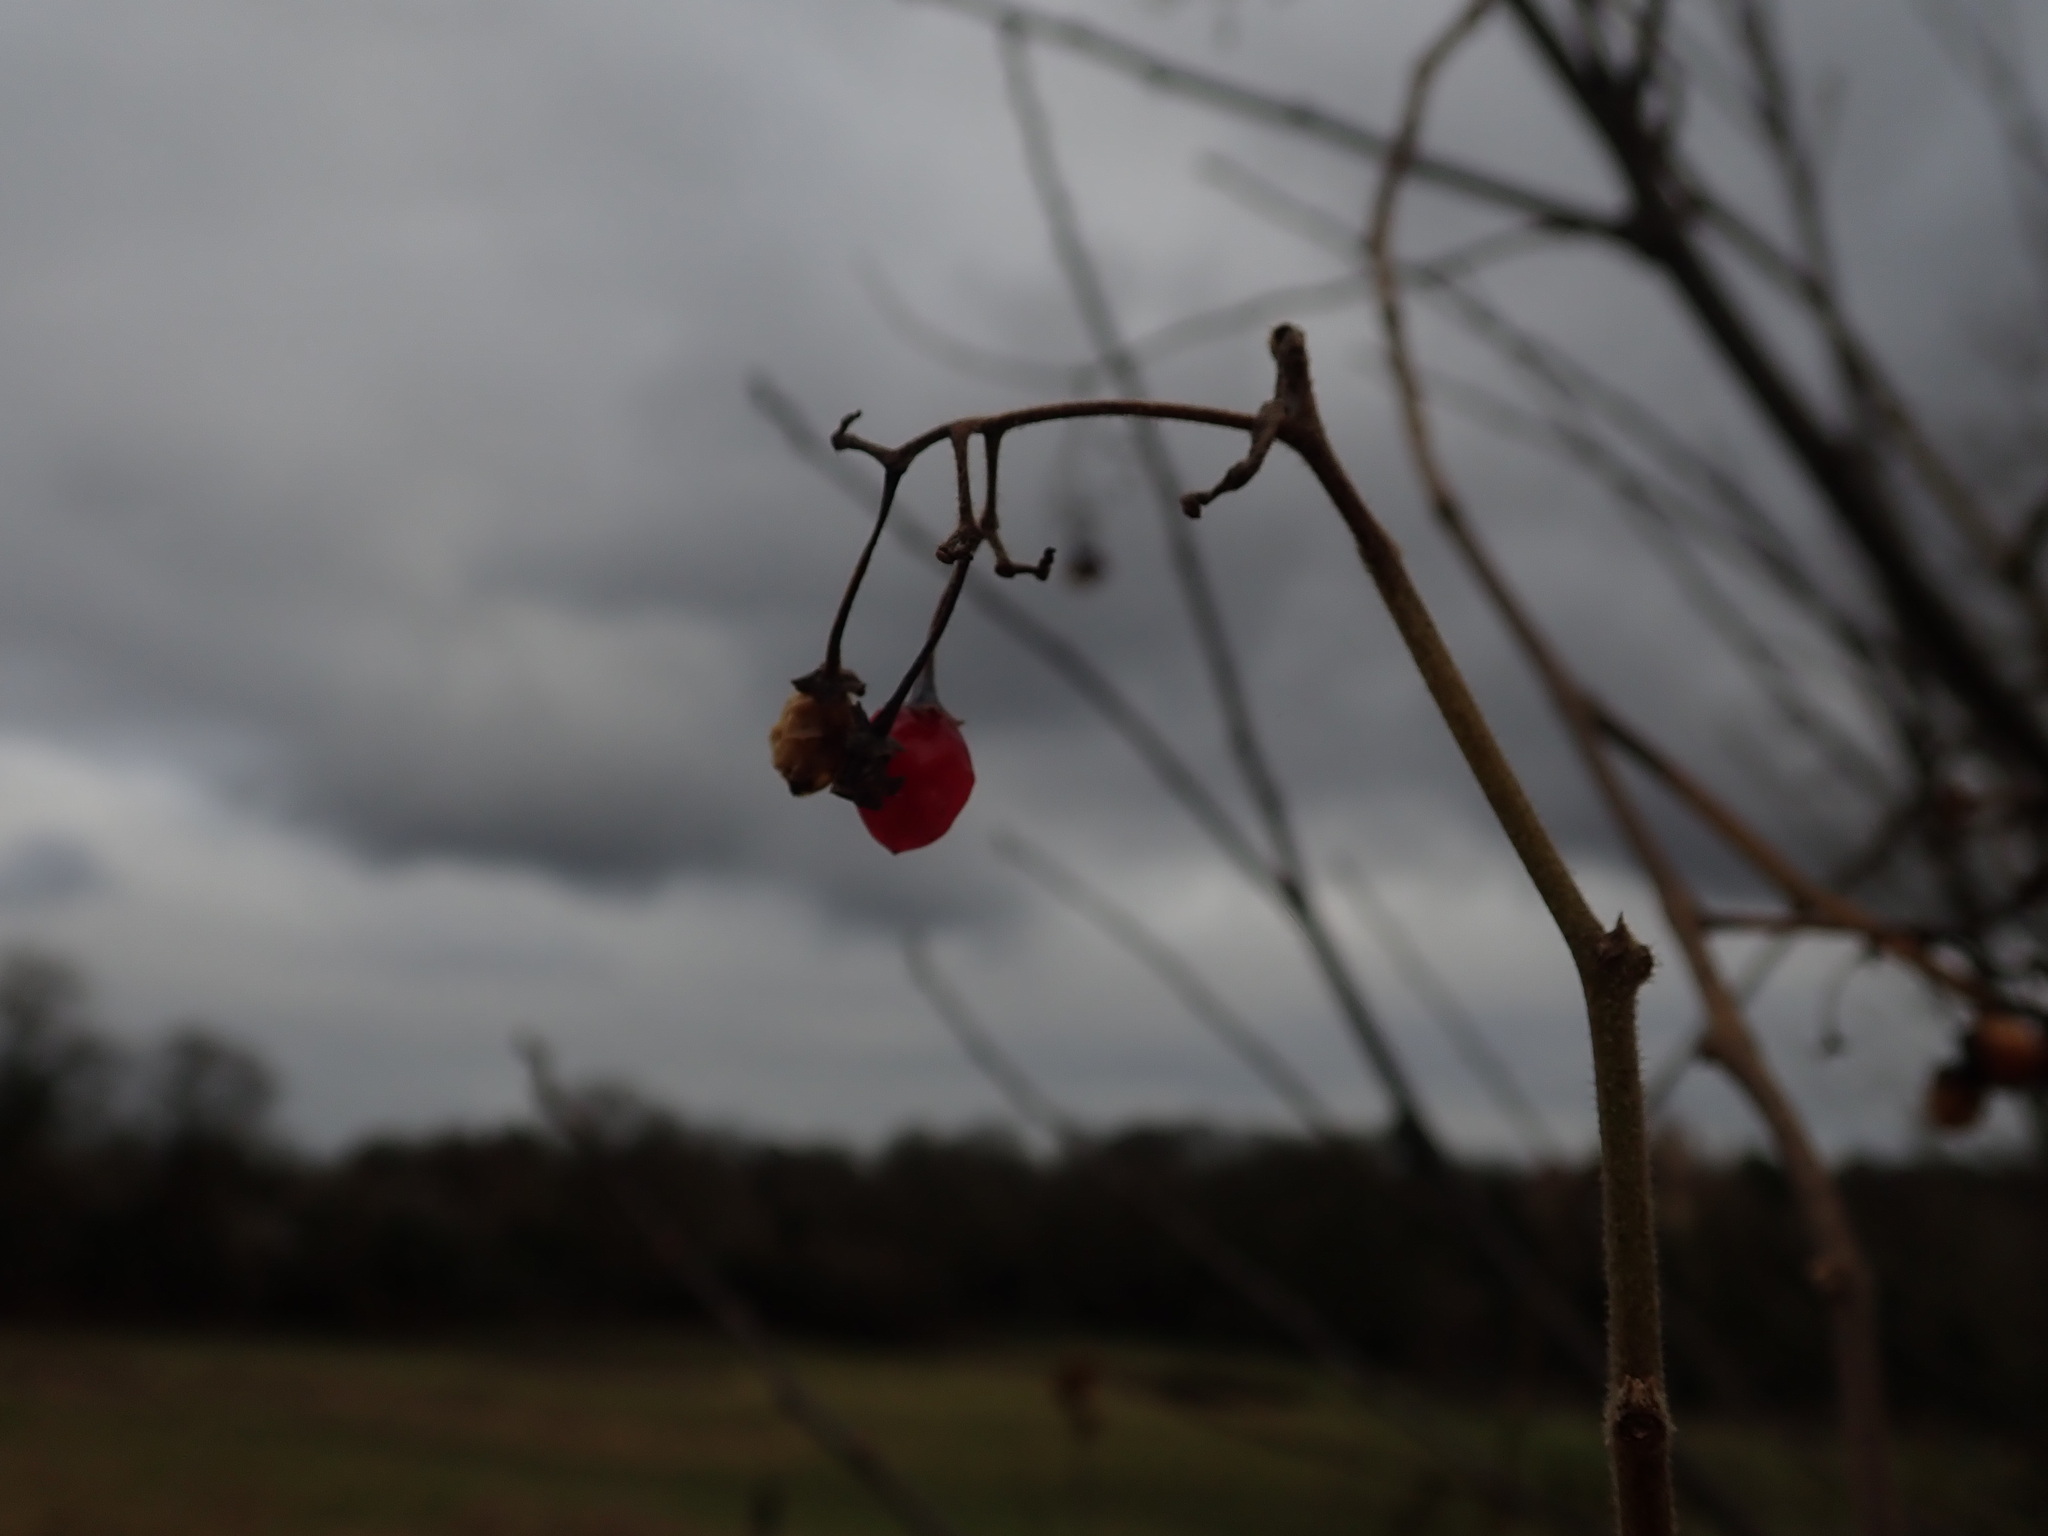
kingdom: Plantae
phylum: Tracheophyta
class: Magnoliopsida
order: Solanales
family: Solanaceae
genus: Solanum
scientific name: Solanum dulcamara
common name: Climbing nightshade
